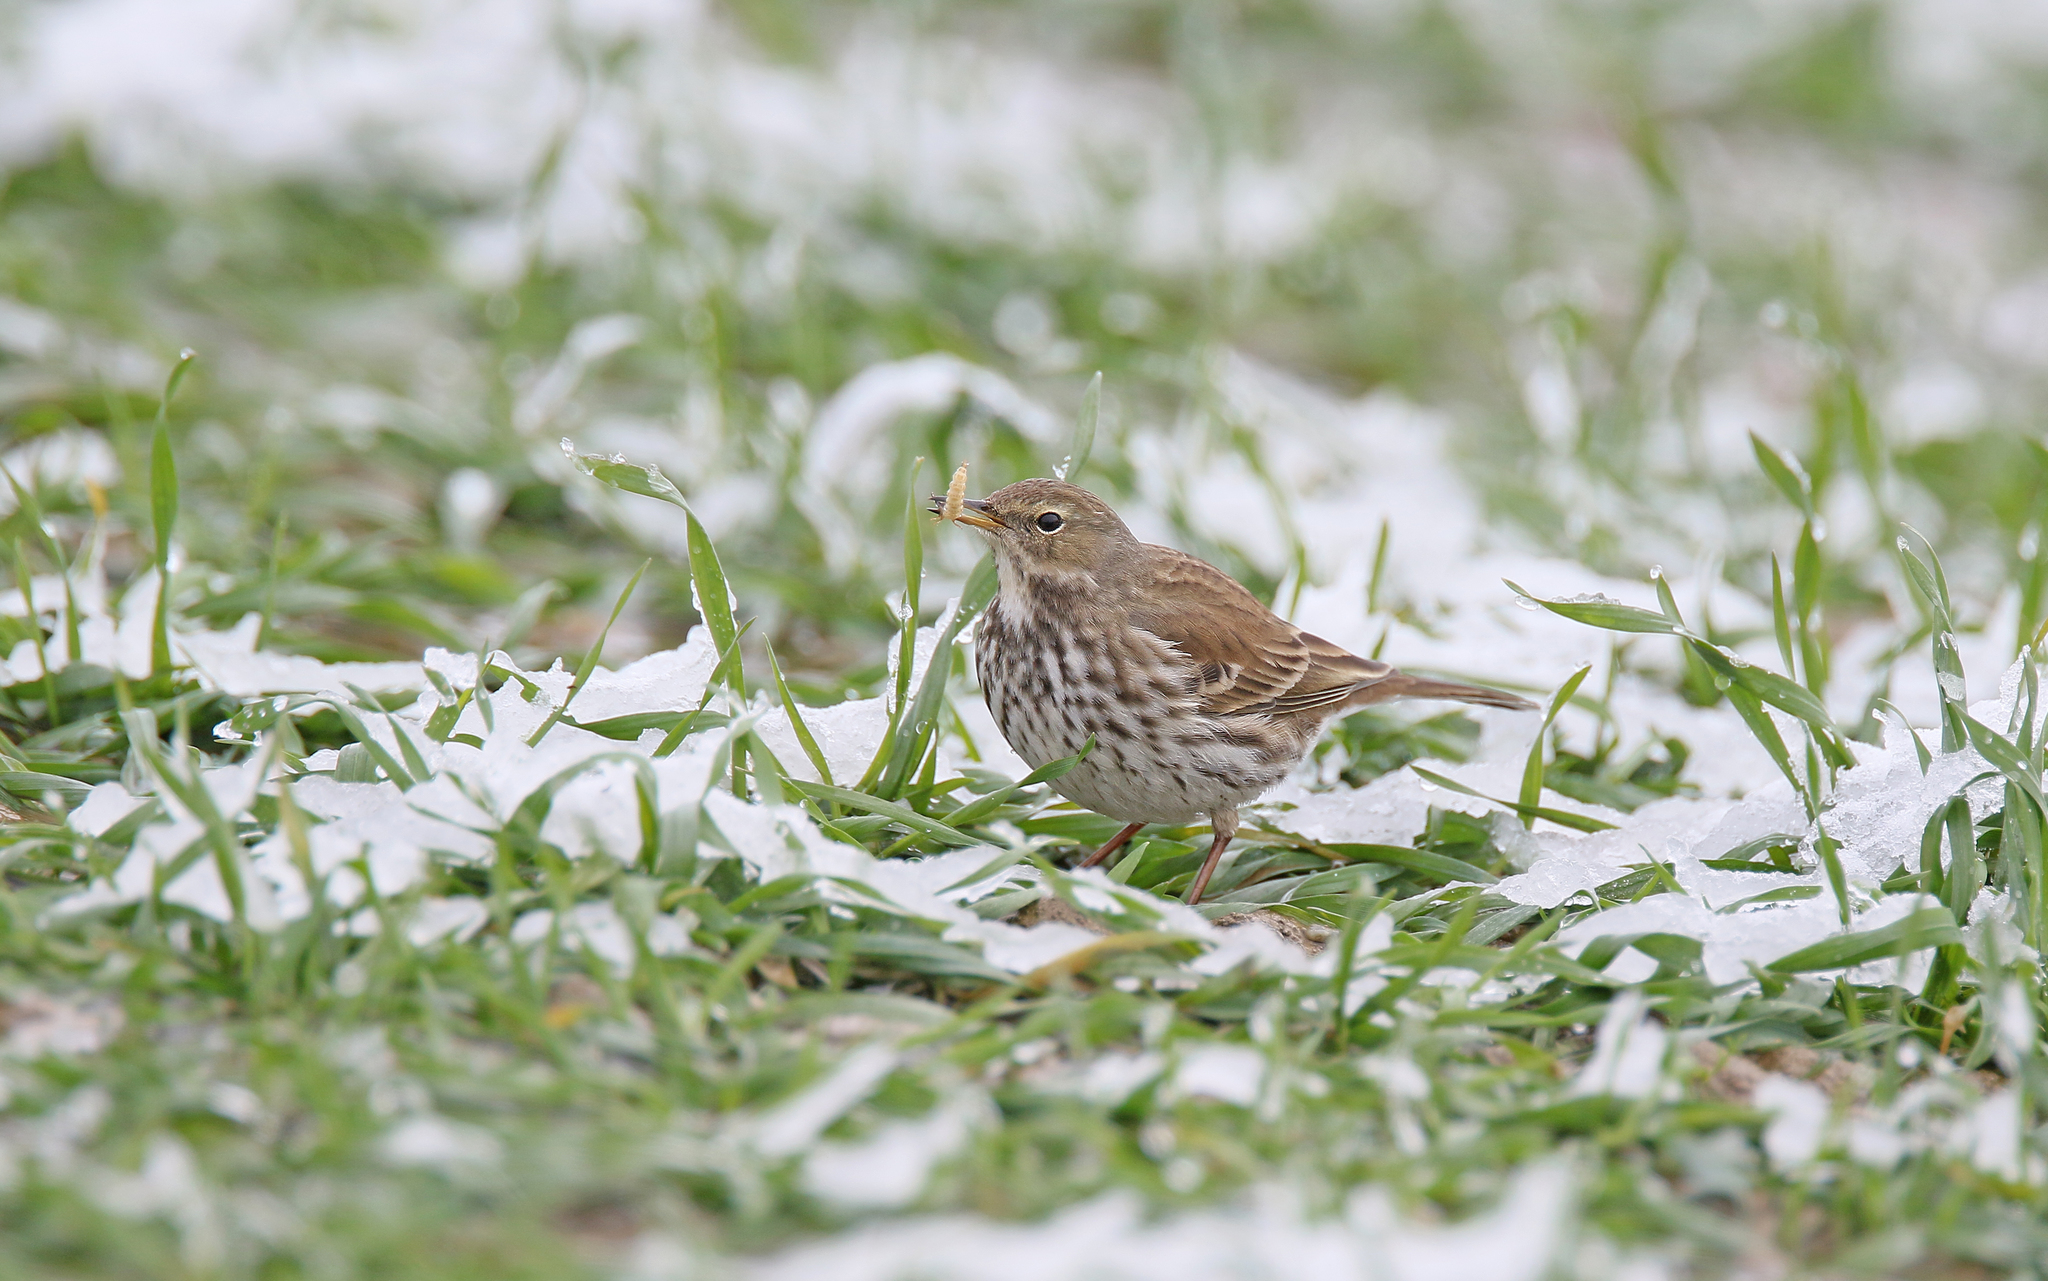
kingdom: Animalia
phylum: Chordata
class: Aves
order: Passeriformes
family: Motacillidae
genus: Anthus
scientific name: Anthus spinoletta
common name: Water pipit
